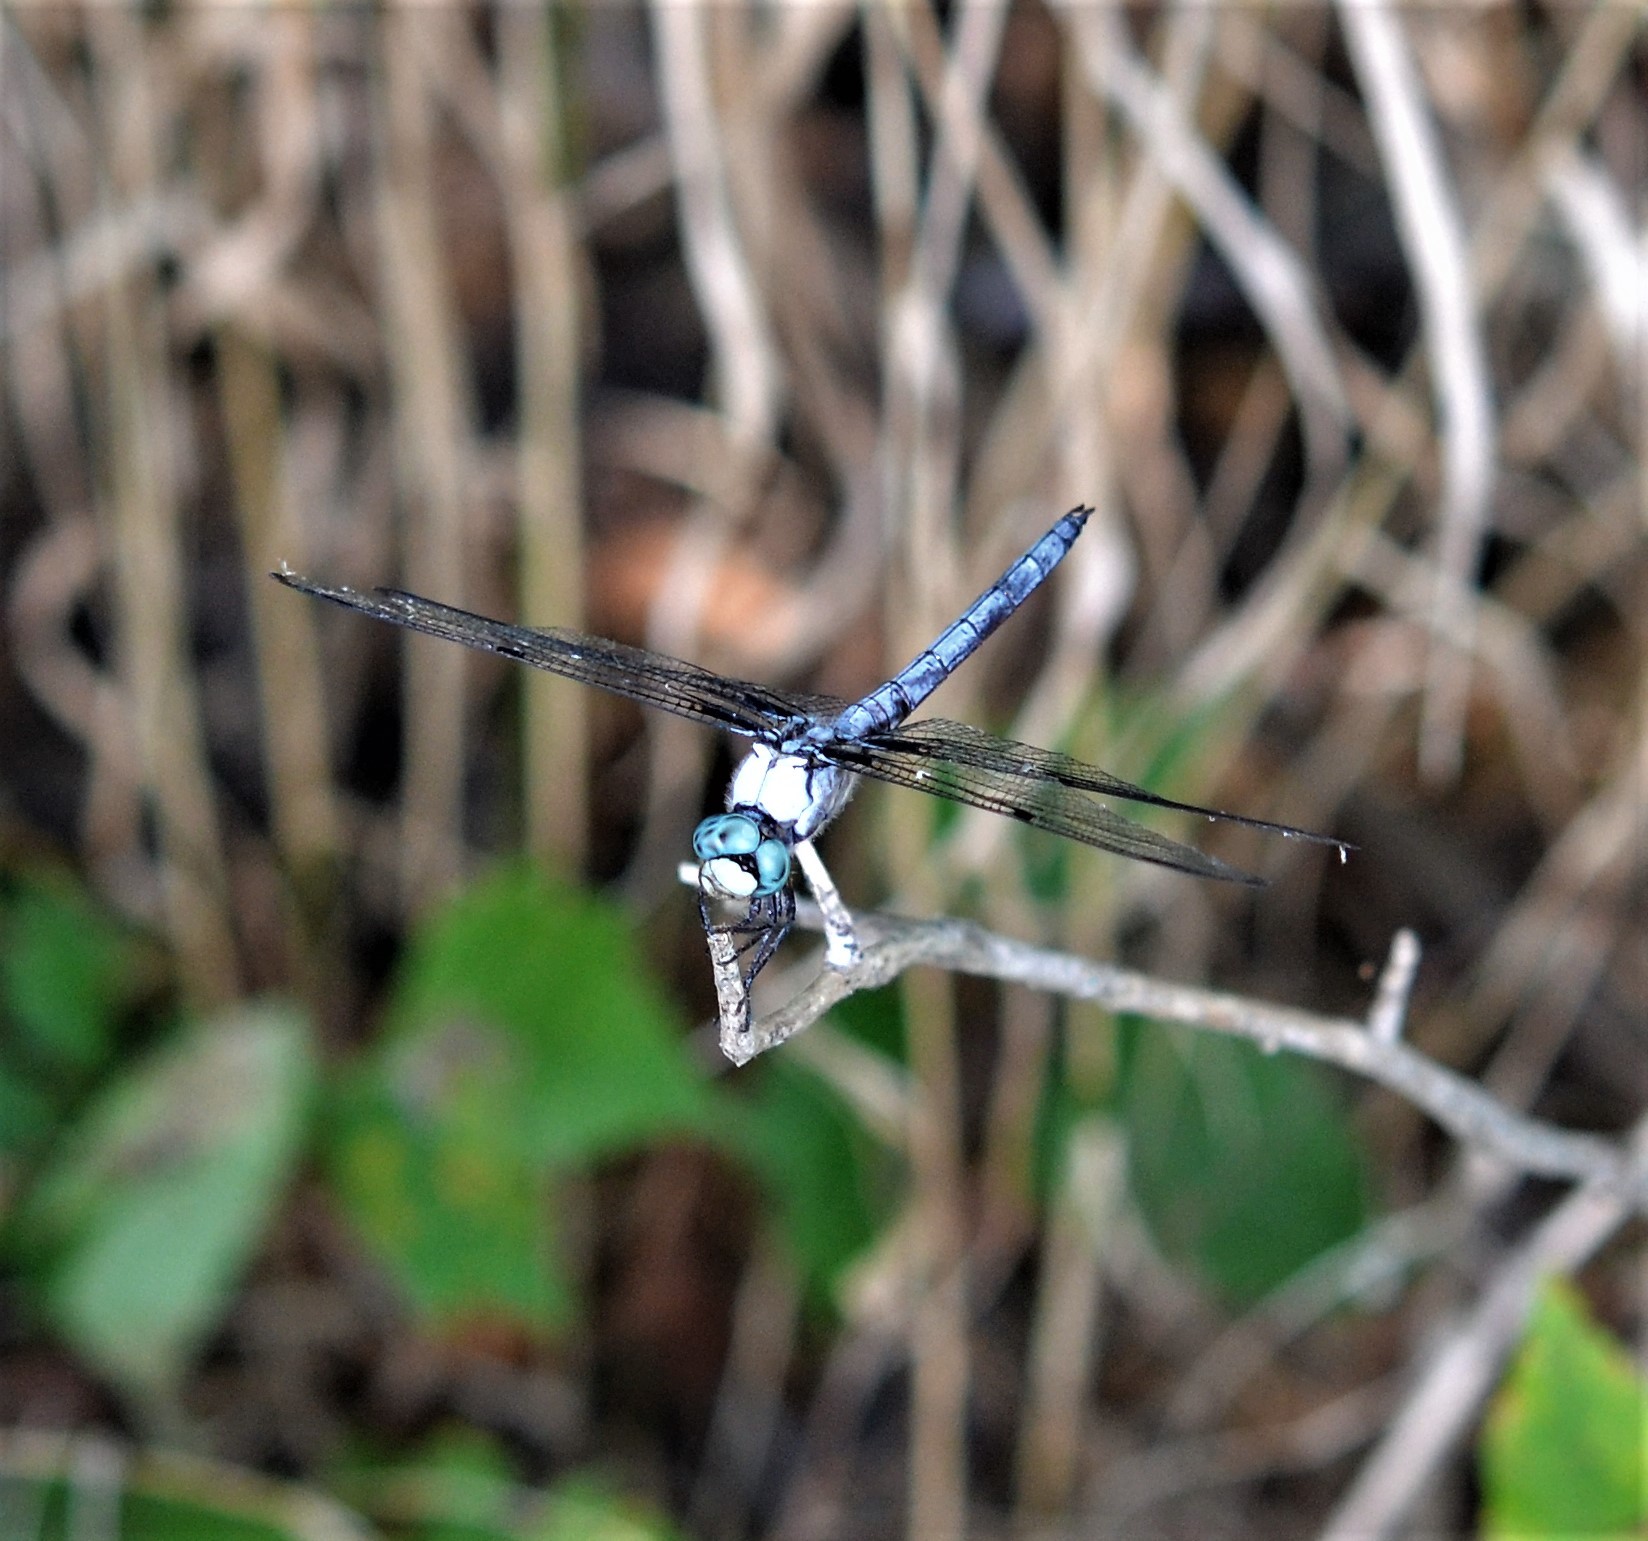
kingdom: Animalia
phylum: Arthropoda
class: Insecta
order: Odonata
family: Libellulidae
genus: Libellula
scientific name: Libellula vibrans
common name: Great blue skimmer
